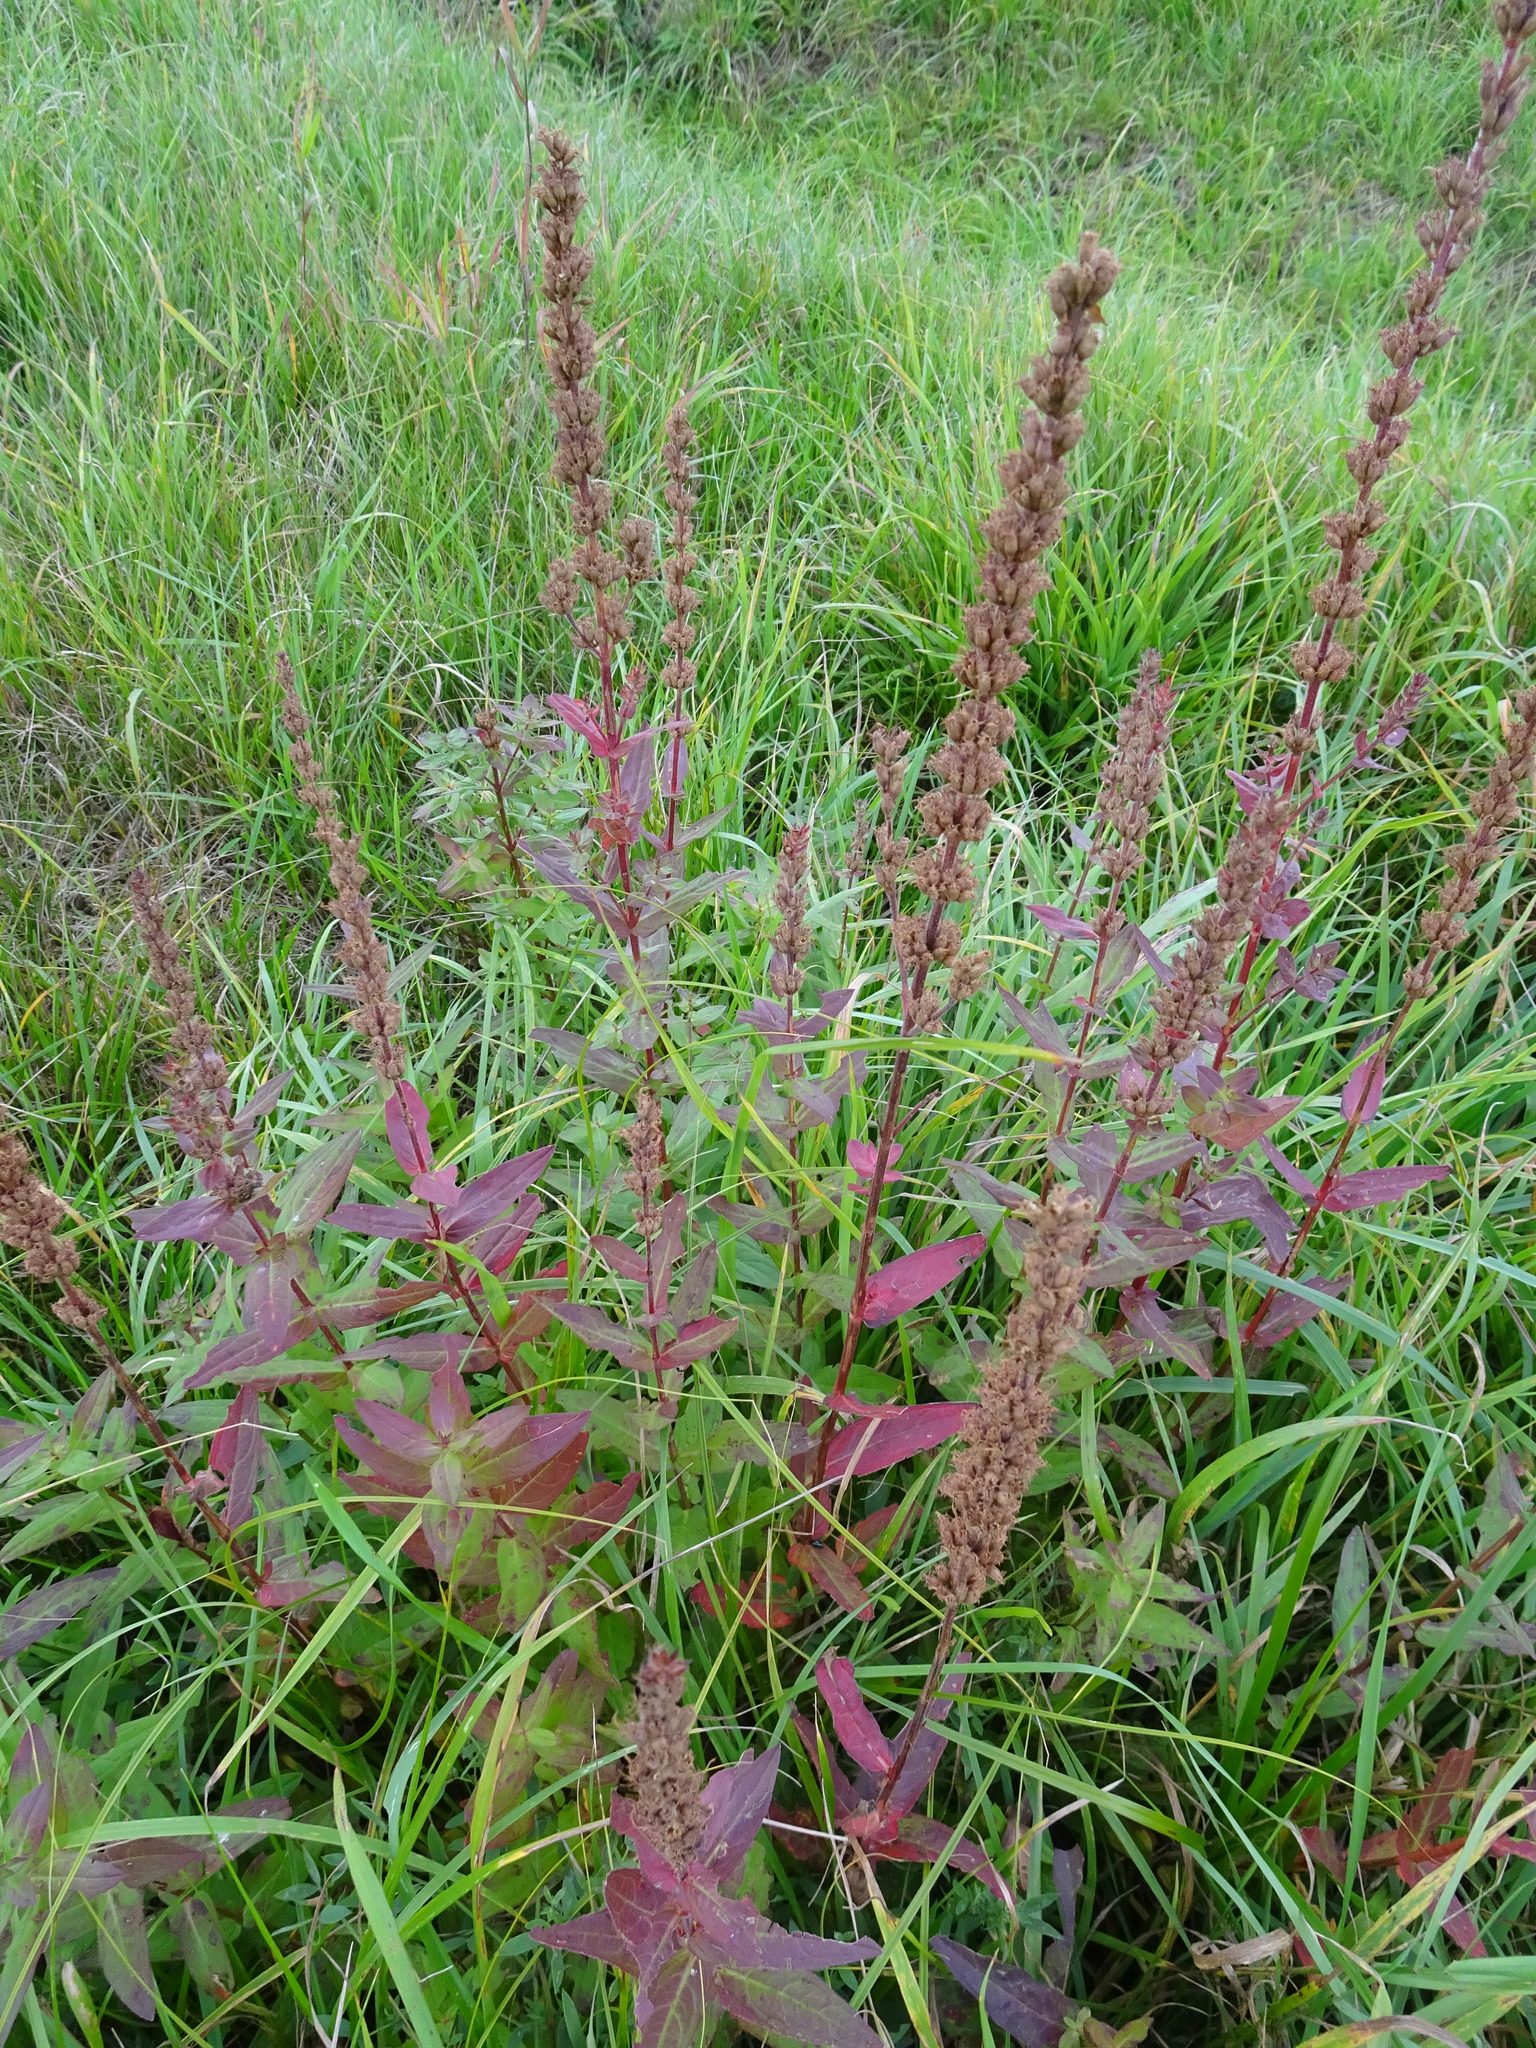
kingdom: Plantae
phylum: Tracheophyta
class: Magnoliopsida
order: Myrtales
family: Lythraceae
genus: Lythrum
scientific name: Lythrum salicaria
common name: Purple loosestrife
